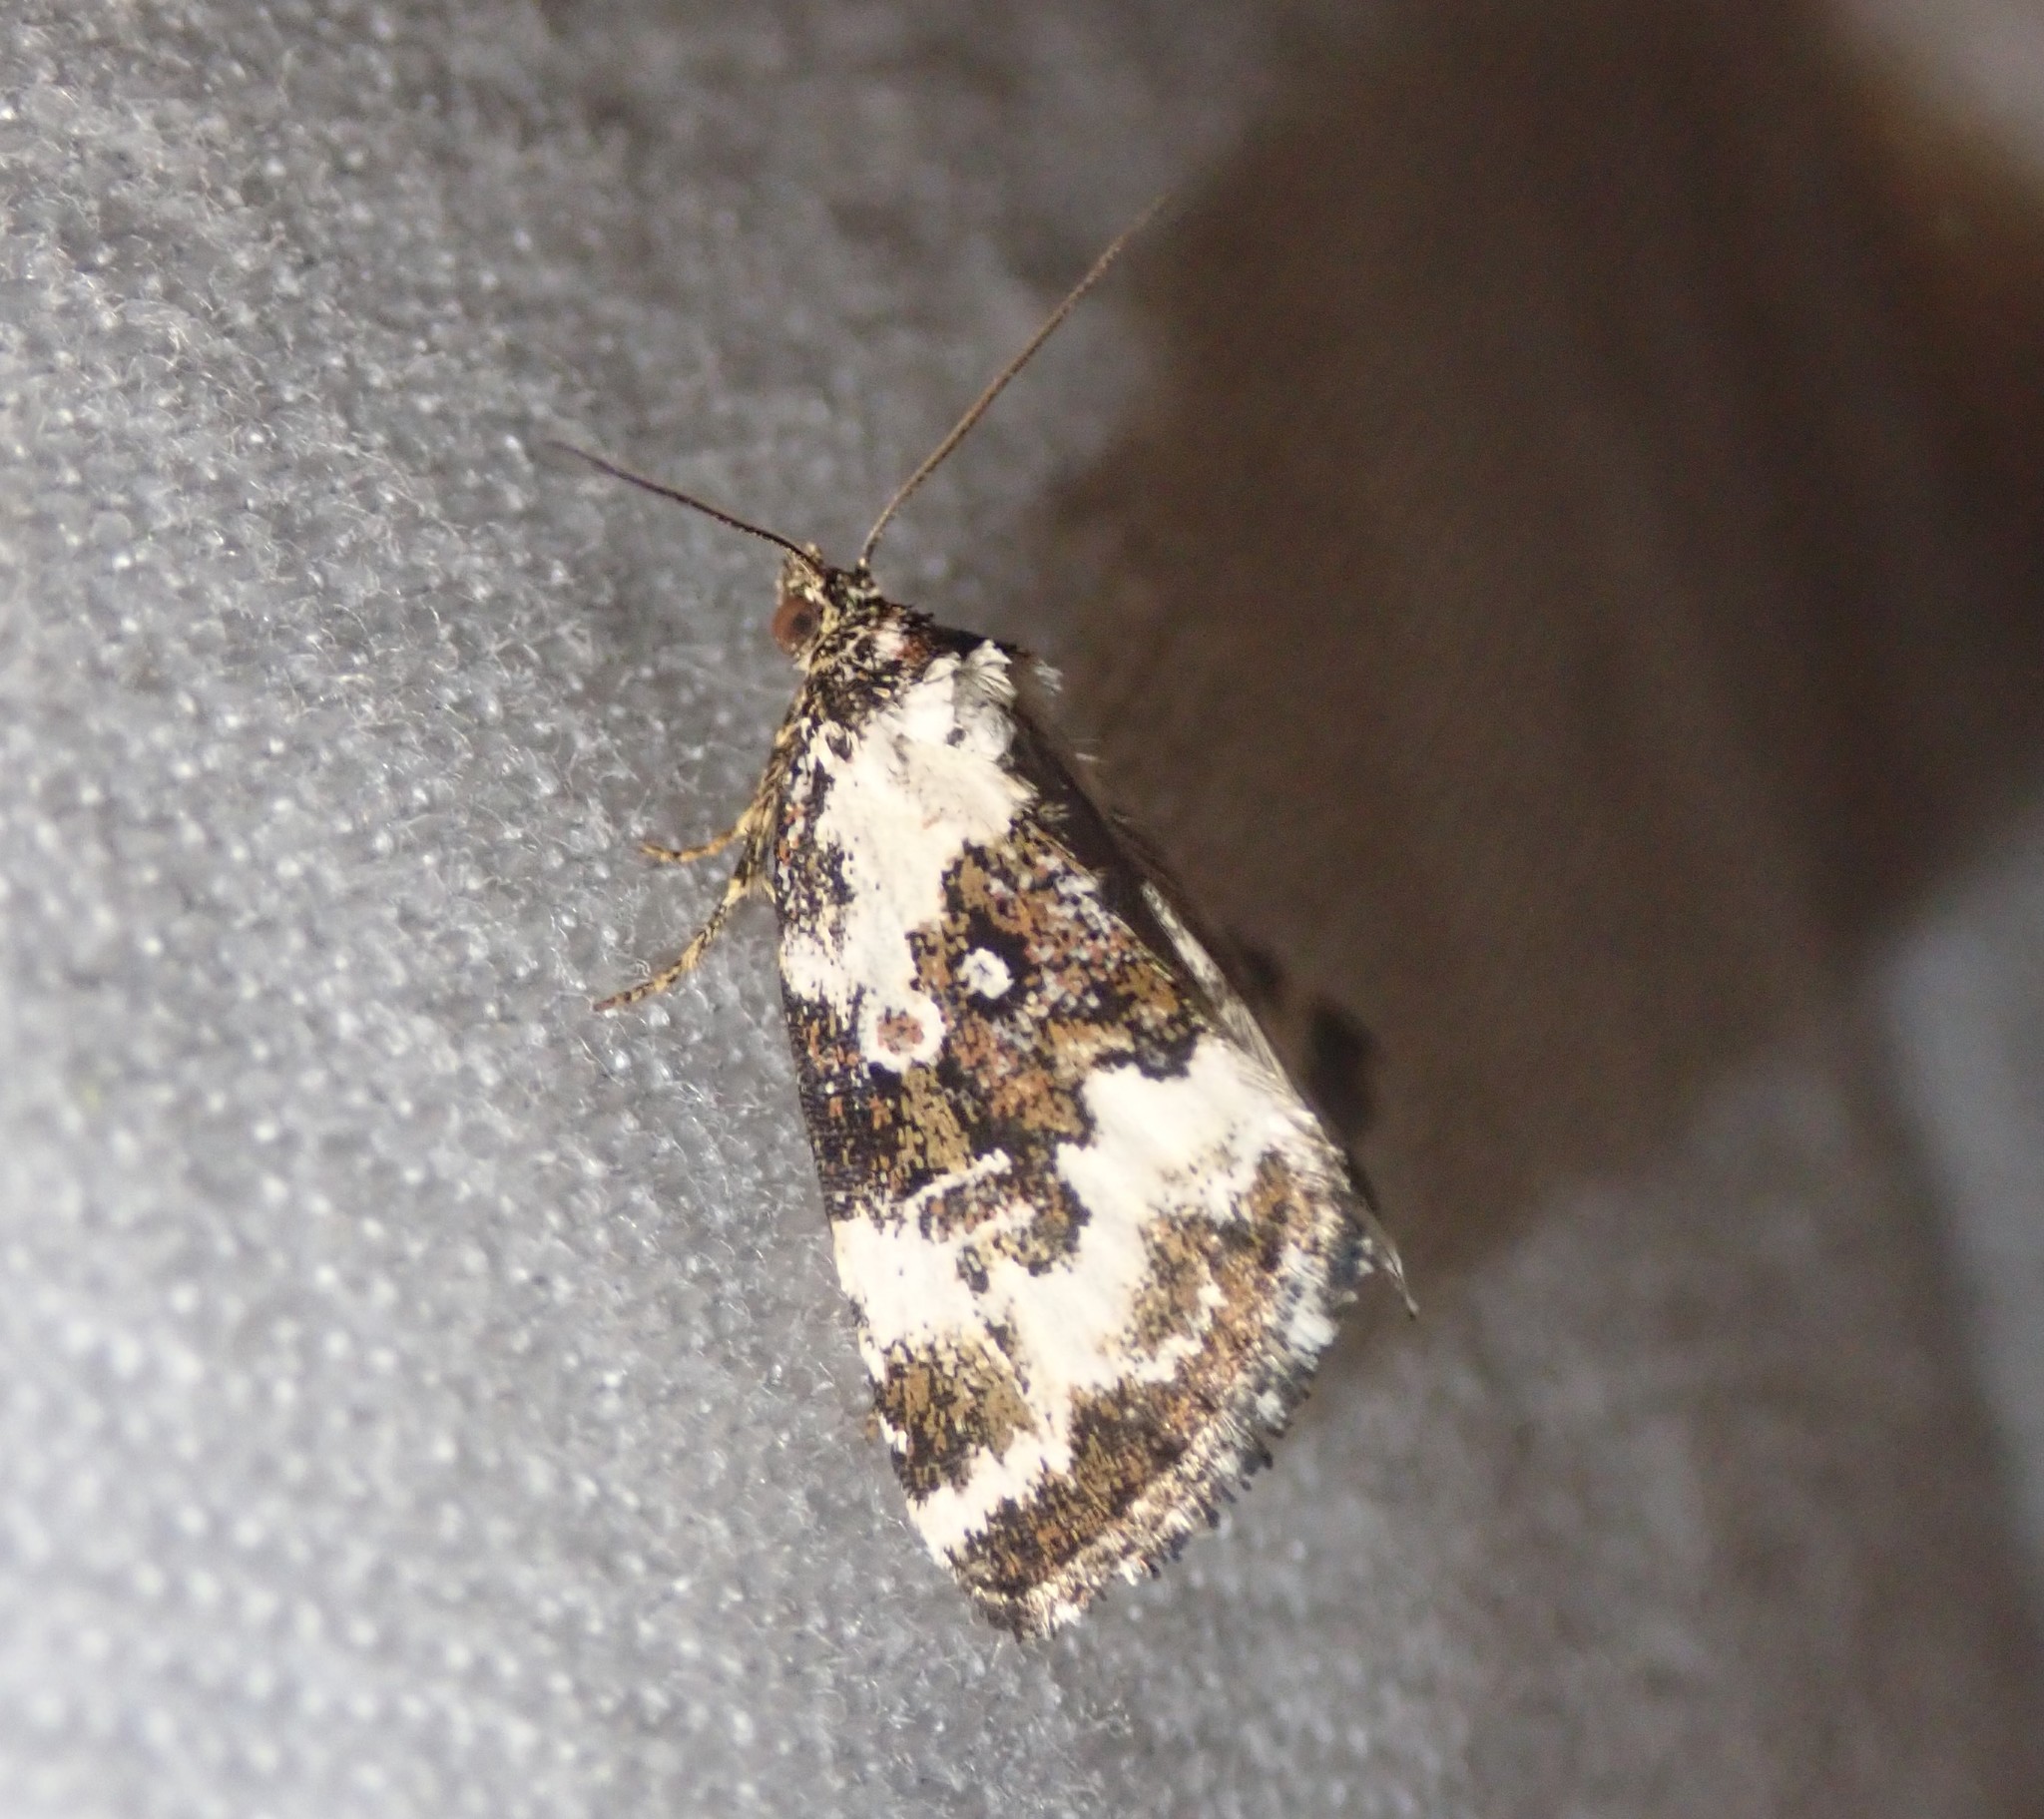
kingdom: Animalia
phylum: Arthropoda
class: Insecta
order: Lepidoptera
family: Noctuidae
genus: Deltote
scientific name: Deltote deceptoria
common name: Pretty marbled
